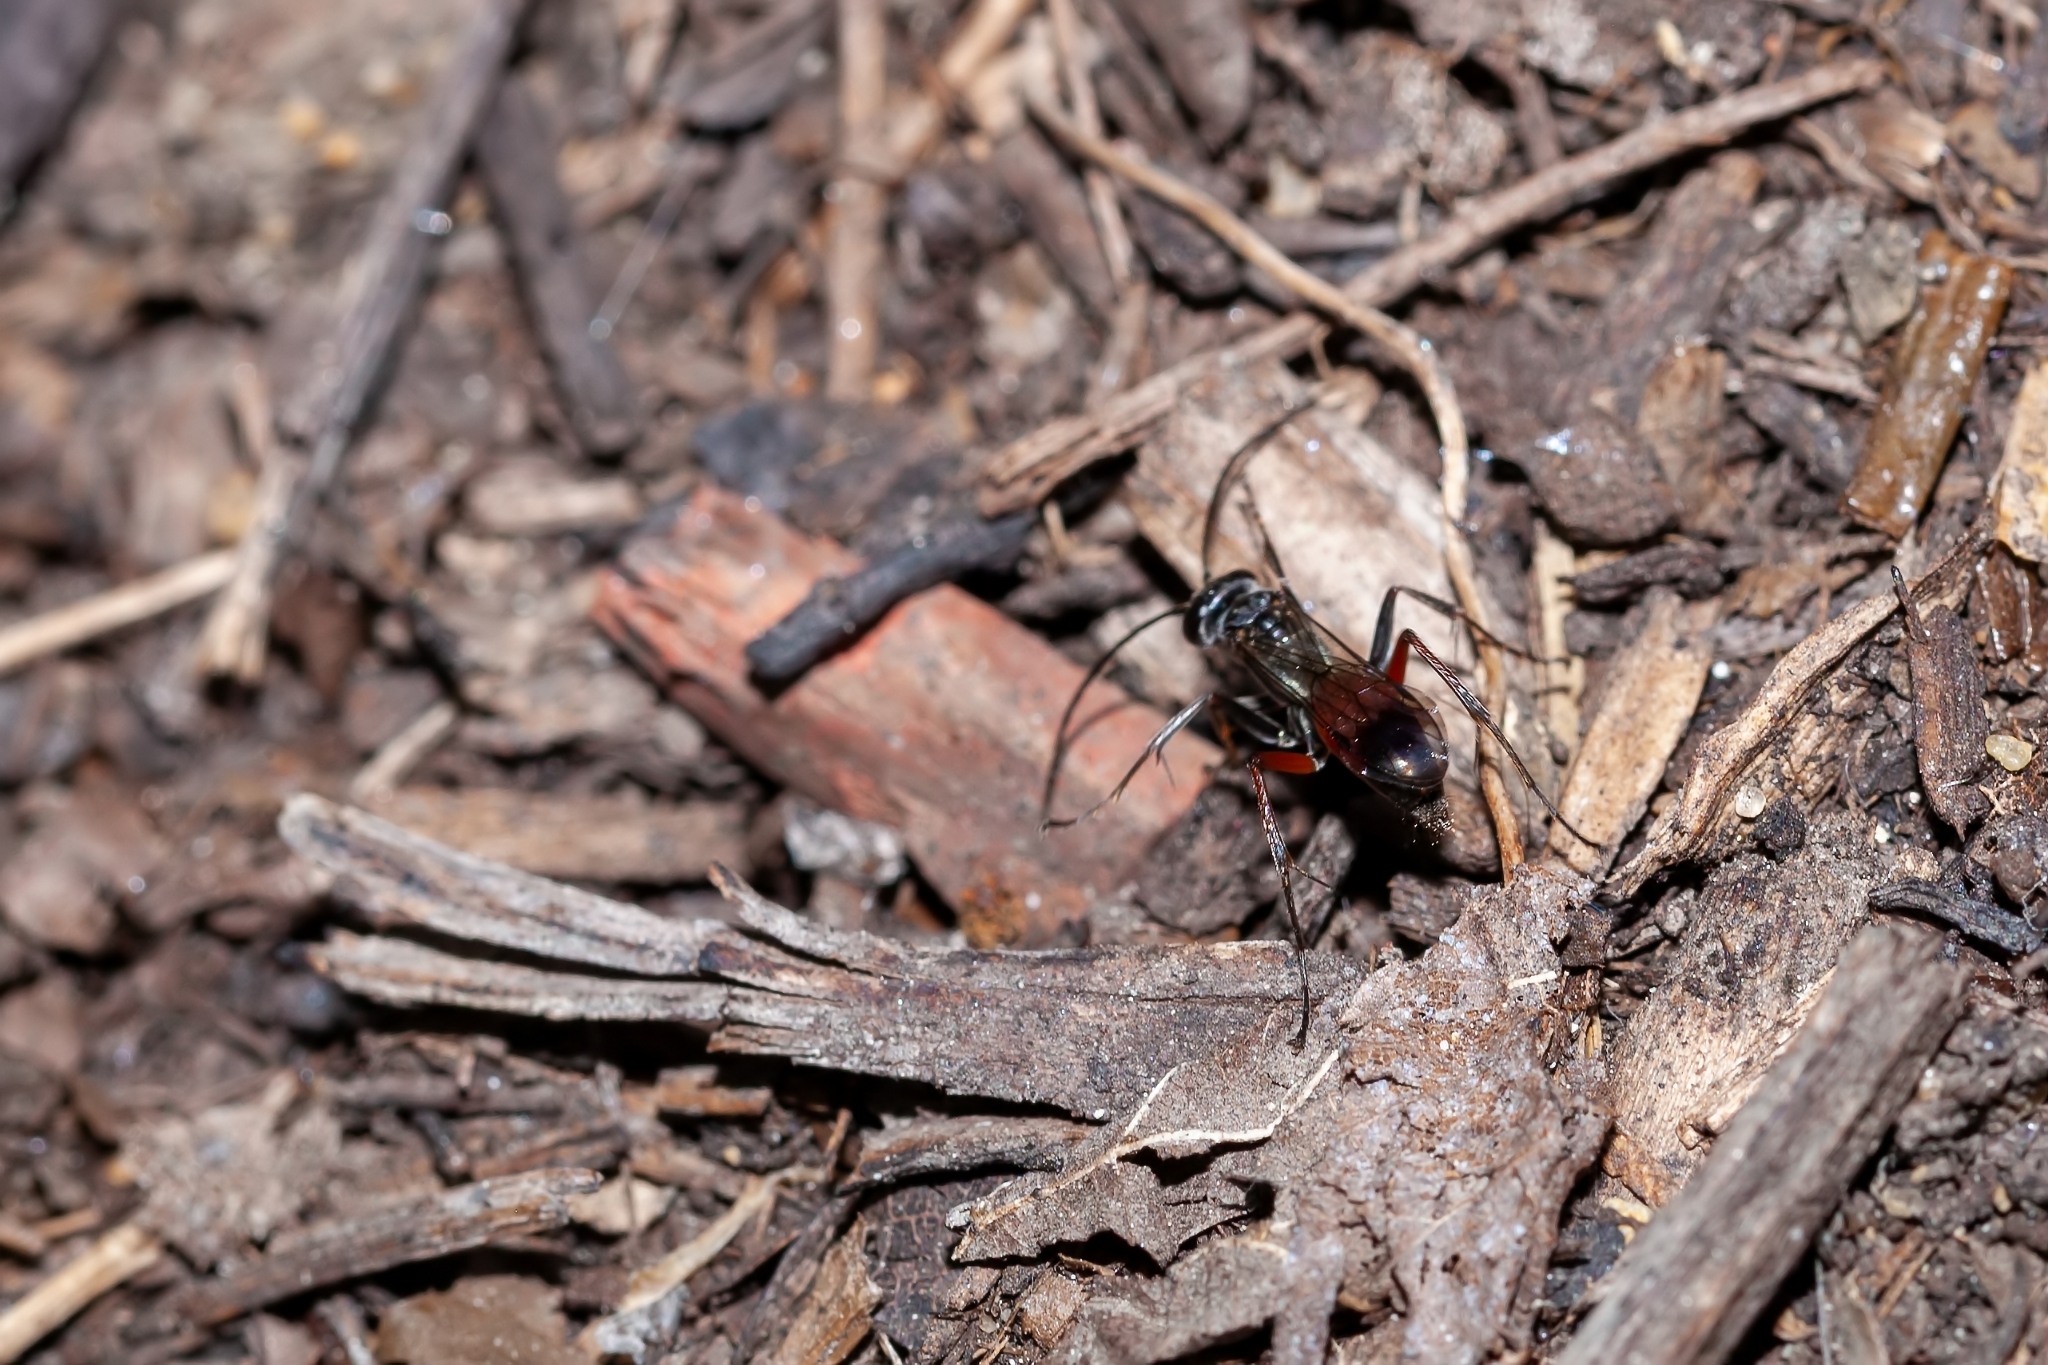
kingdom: Animalia
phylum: Arthropoda
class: Insecta
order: Hymenoptera
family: Pompilidae
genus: Caliadurgus
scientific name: Caliadurgus fasciatellus
